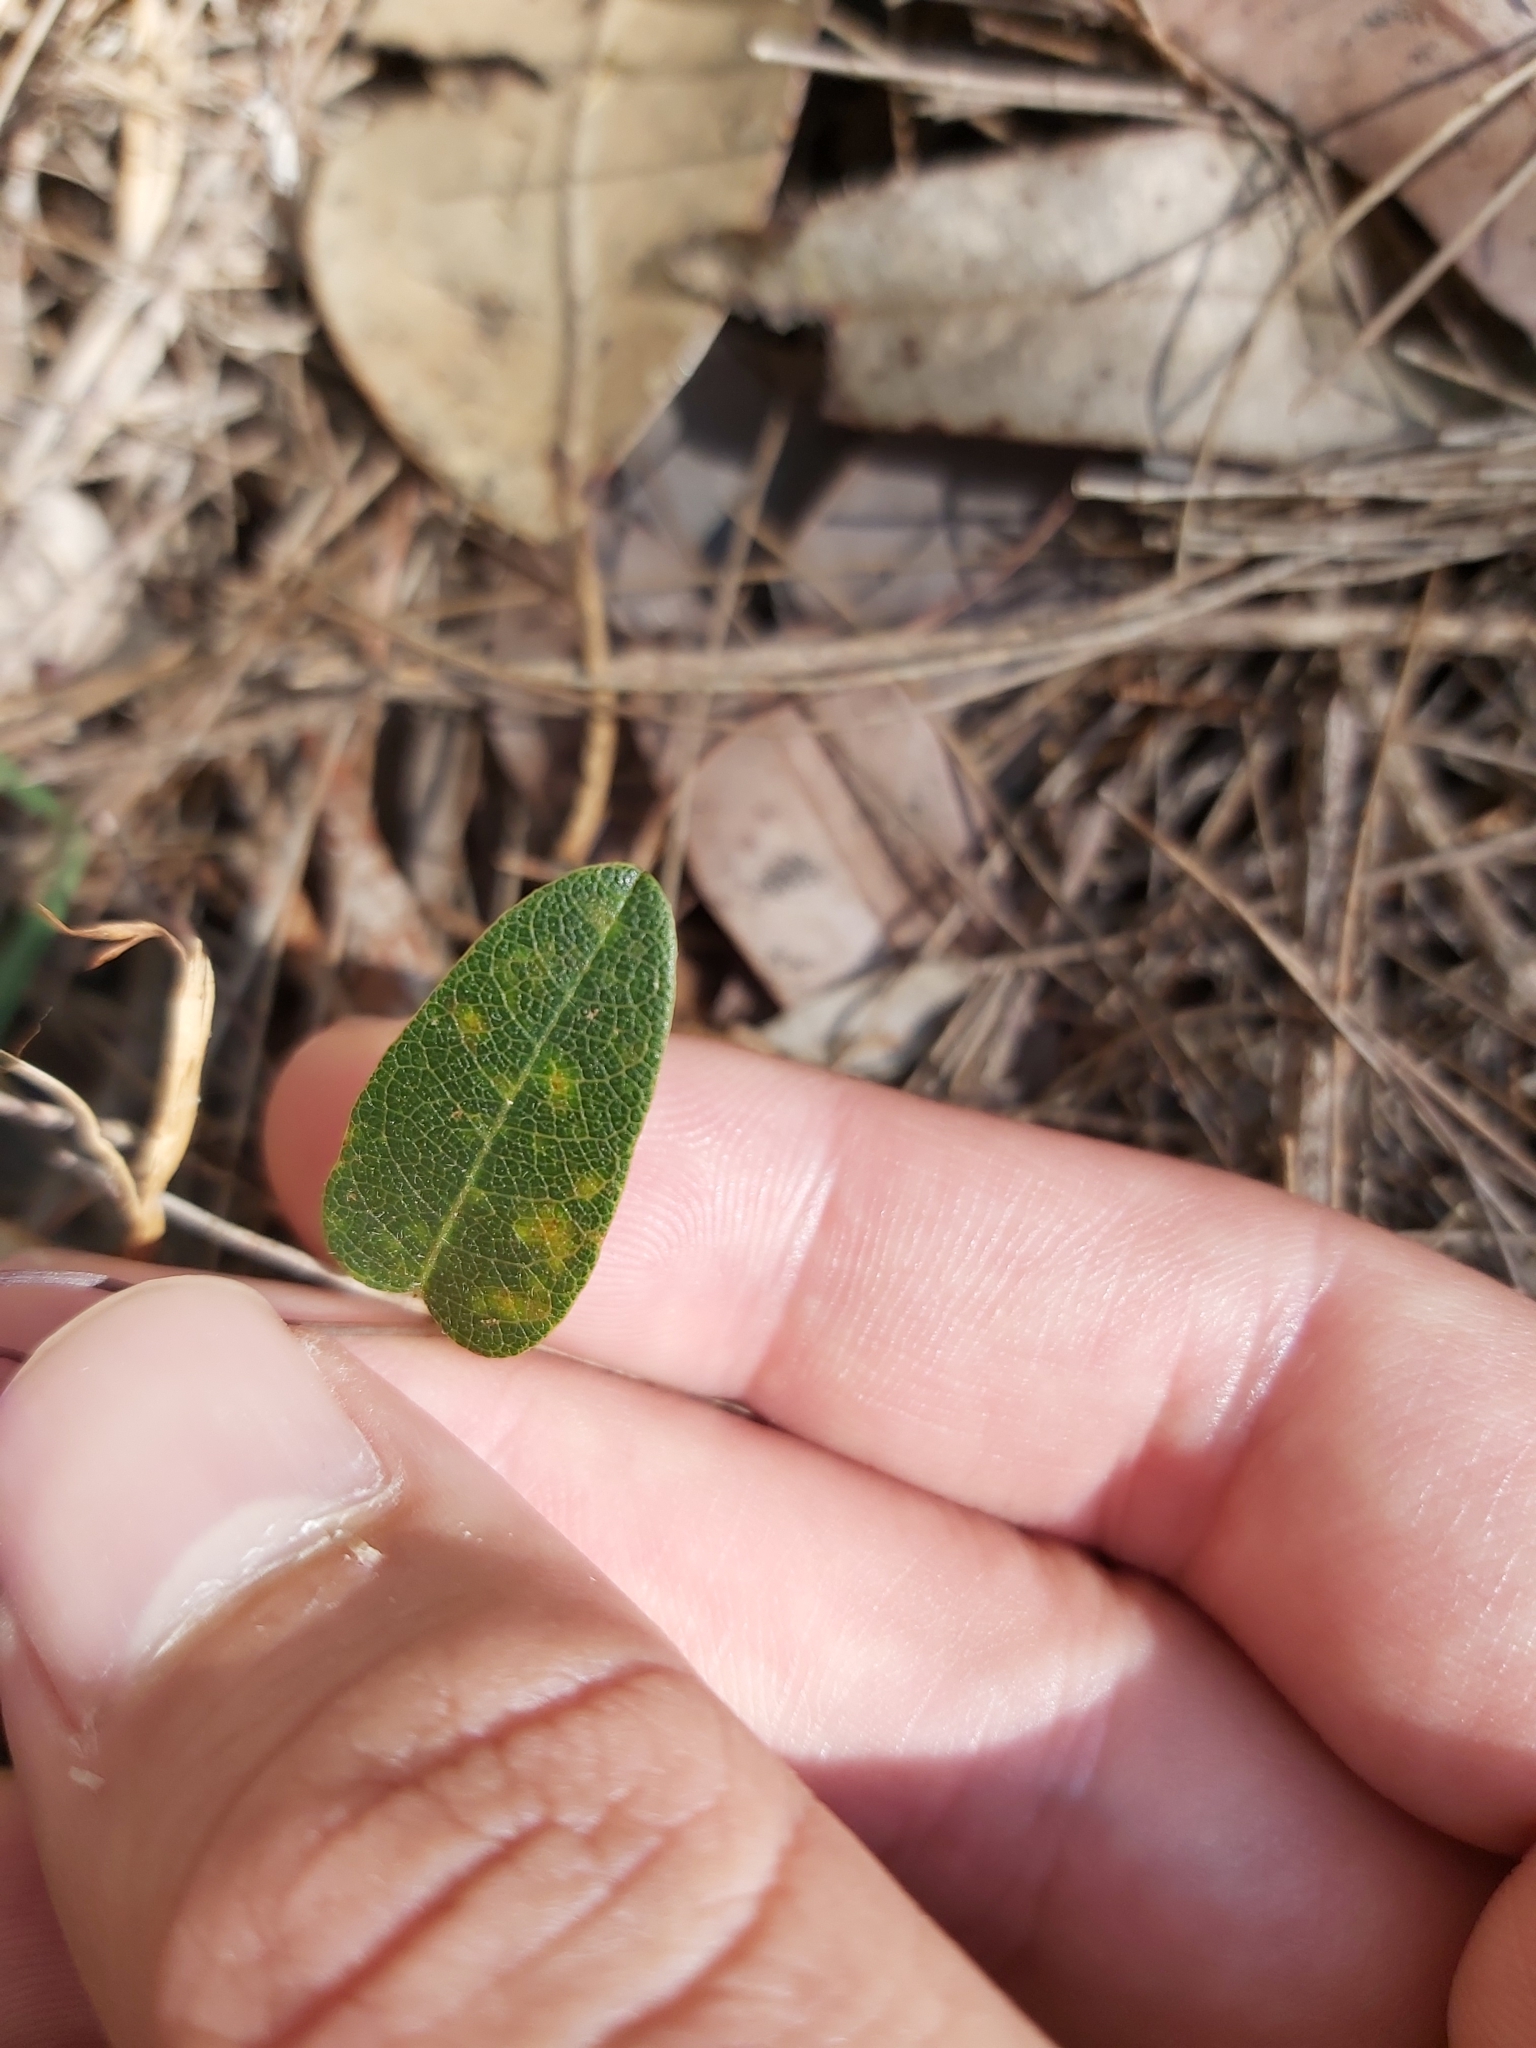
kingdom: Plantae
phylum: Tracheophyta
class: Magnoliopsida
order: Fabales
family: Fabaceae
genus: Hardenbergia
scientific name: Hardenbergia violacea
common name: Coral-pea
